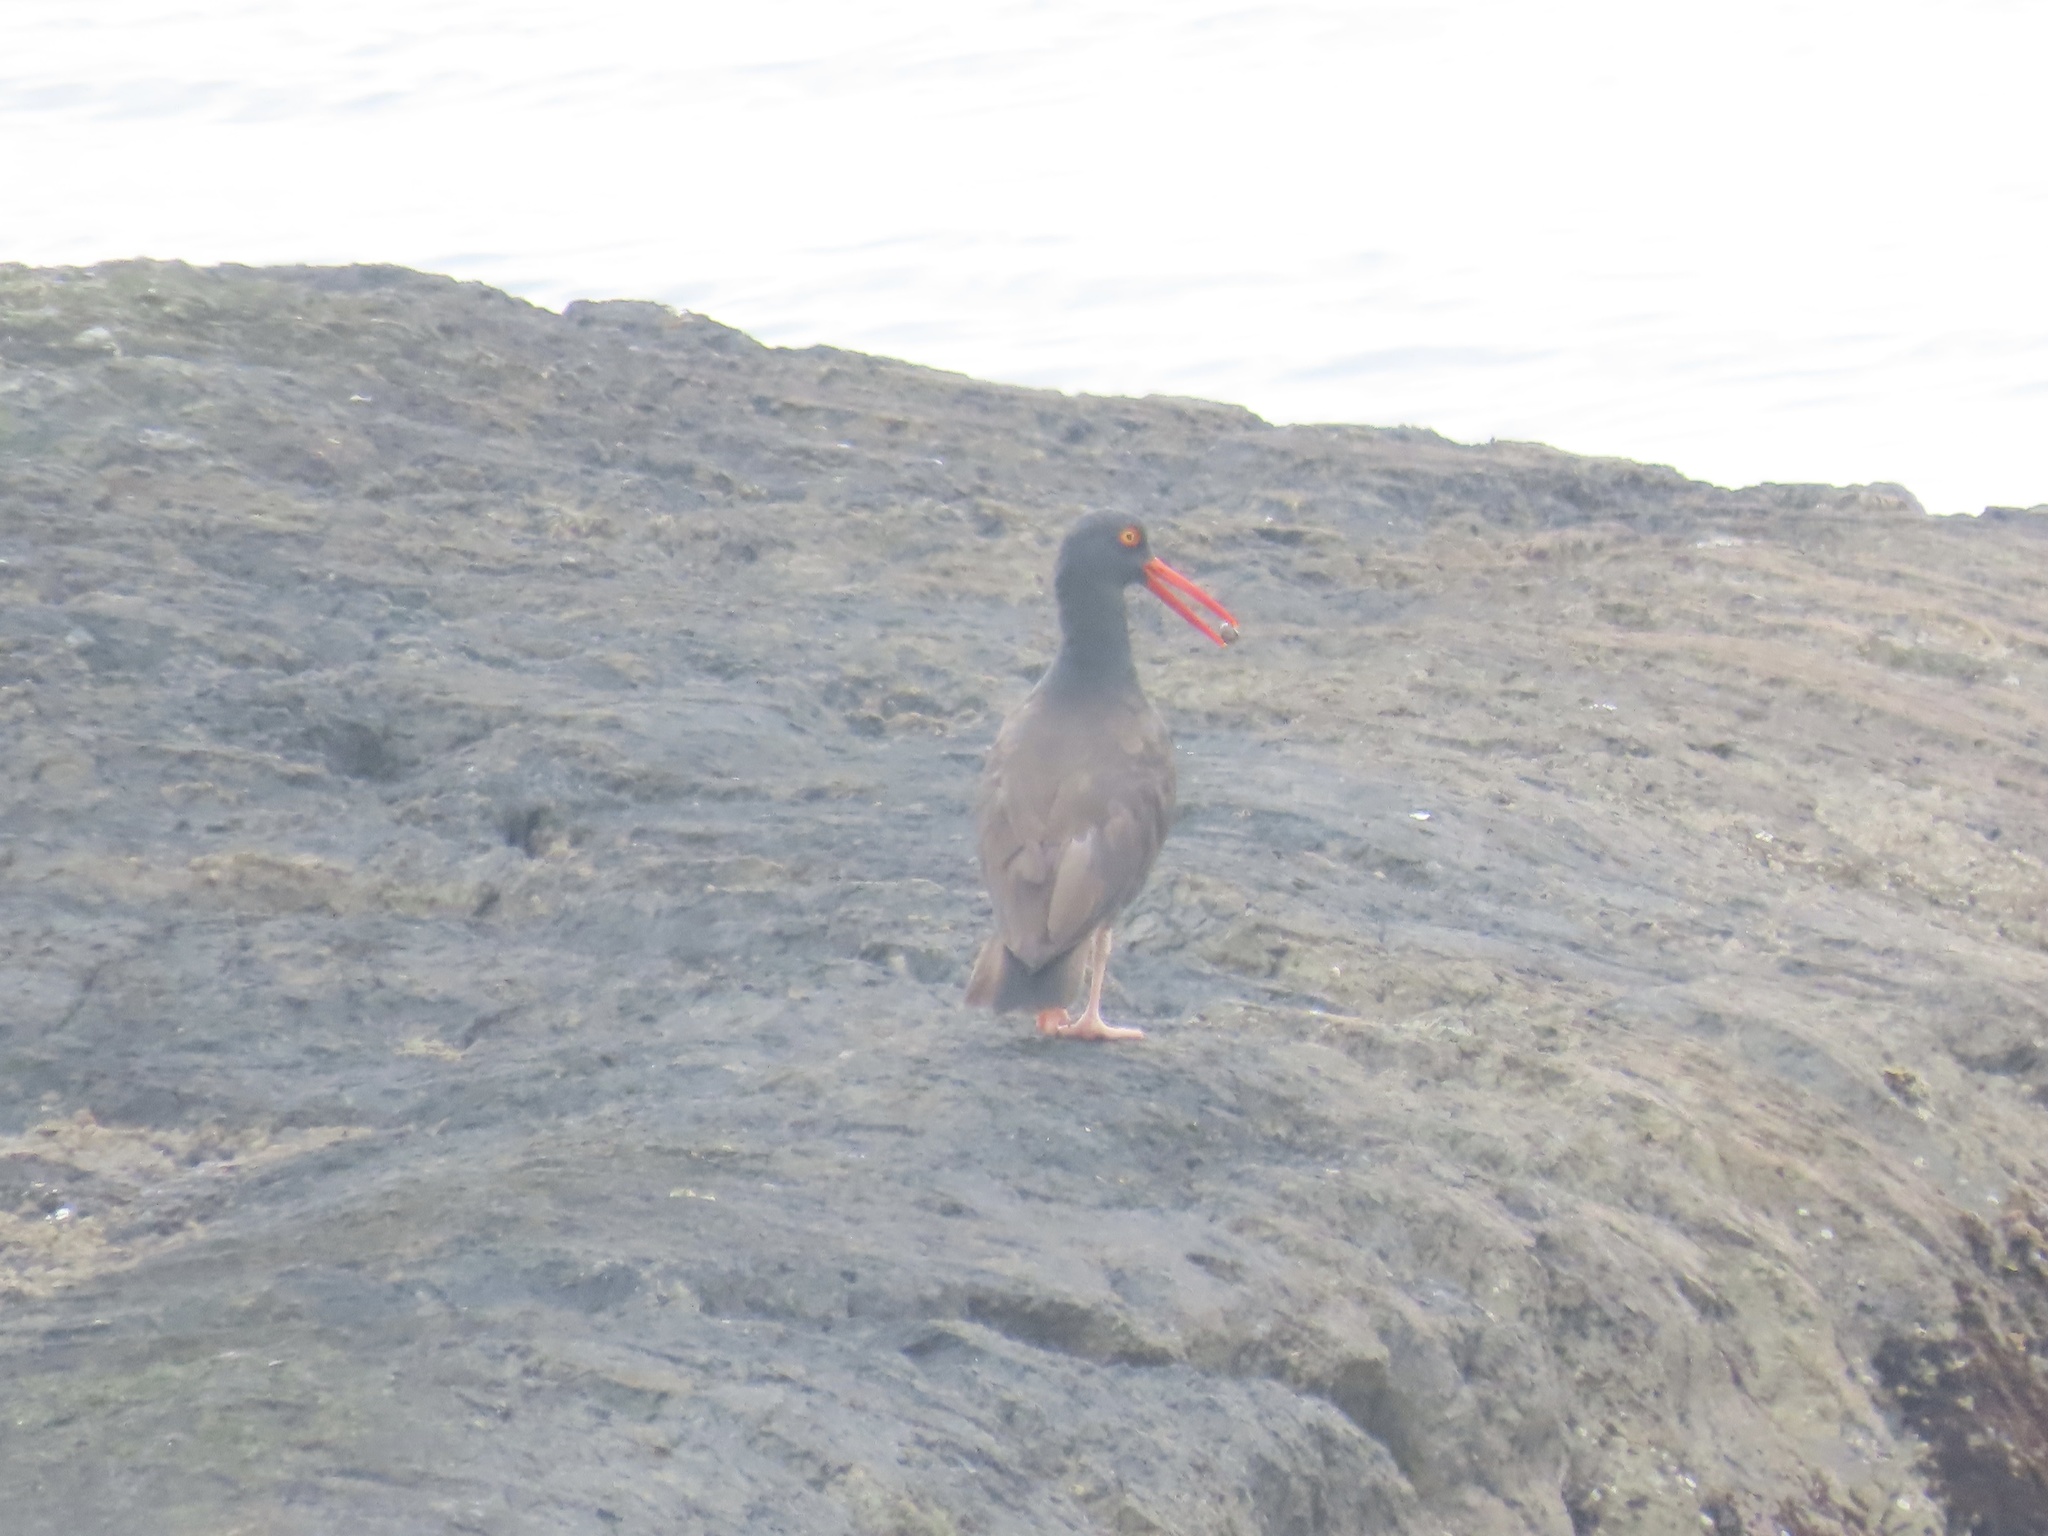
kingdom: Animalia
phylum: Chordata
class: Aves
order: Charadriiformes
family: Haematopodidae
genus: Haematopus
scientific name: Haematopus bachmani
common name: Black oystercatcher
